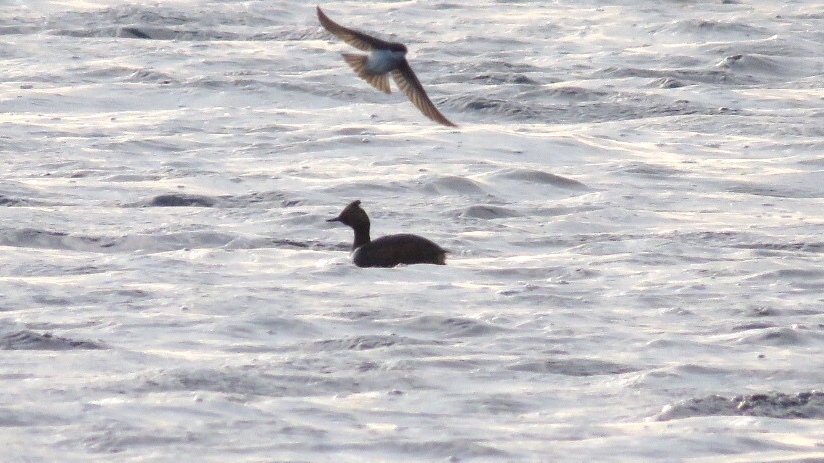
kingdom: Animalia
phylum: Chordata
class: Aves
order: Podicipediformes
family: Podicipedidae
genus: Podiceps
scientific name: Podiceps nigricollis
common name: Black-necked grebe
